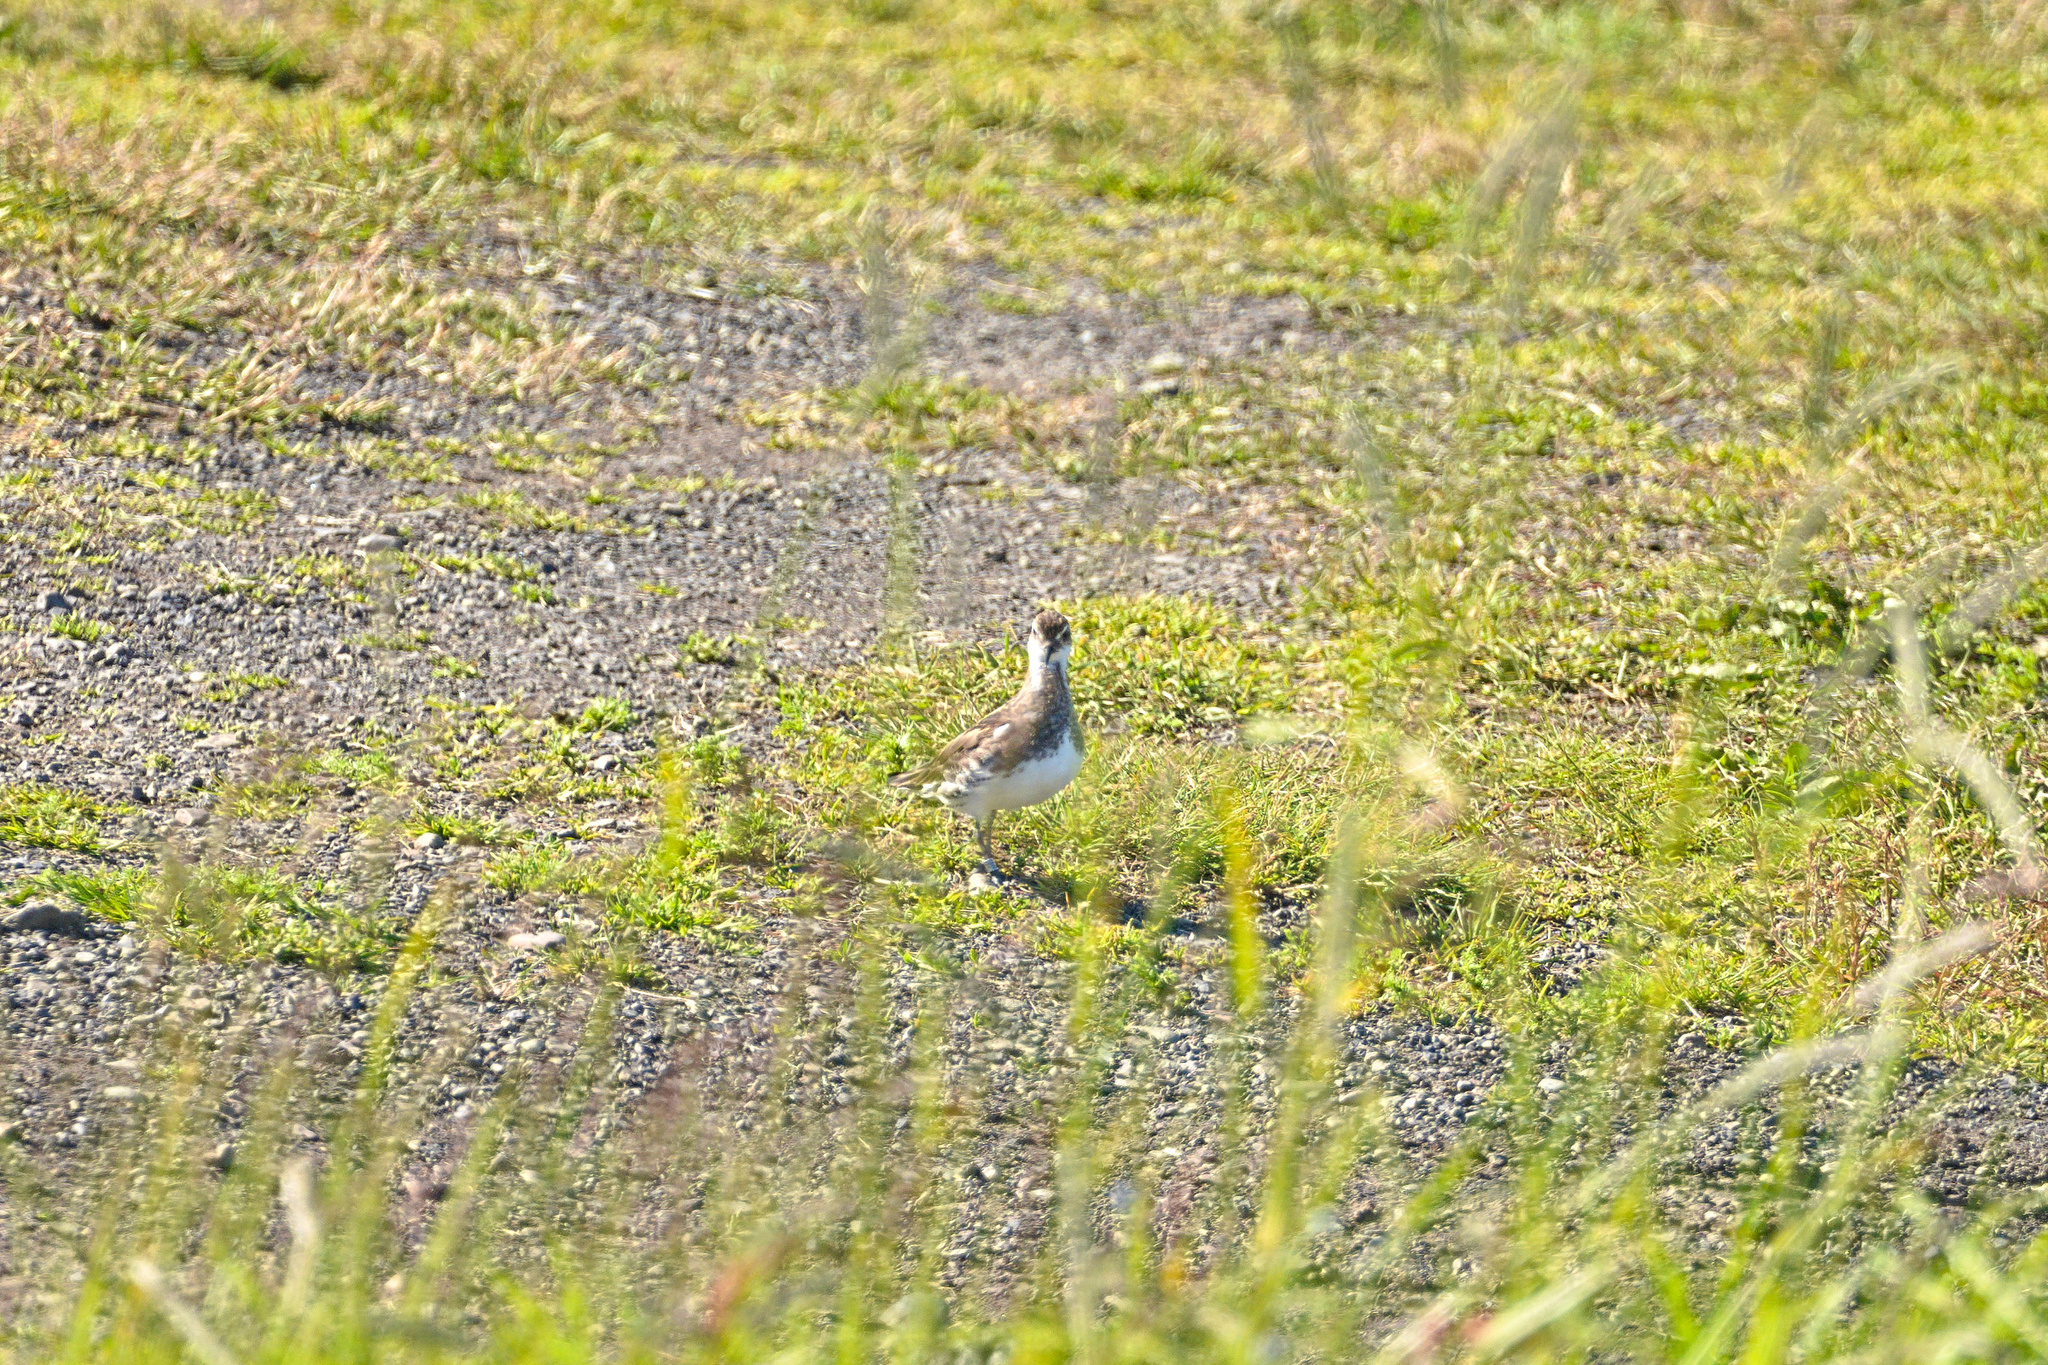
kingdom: Animalia
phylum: Chordata
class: Aves
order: Charadriiformes
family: Scolopacidae
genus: Phalaropus
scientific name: Phalaropus lobatus
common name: Red-necked phalarope
